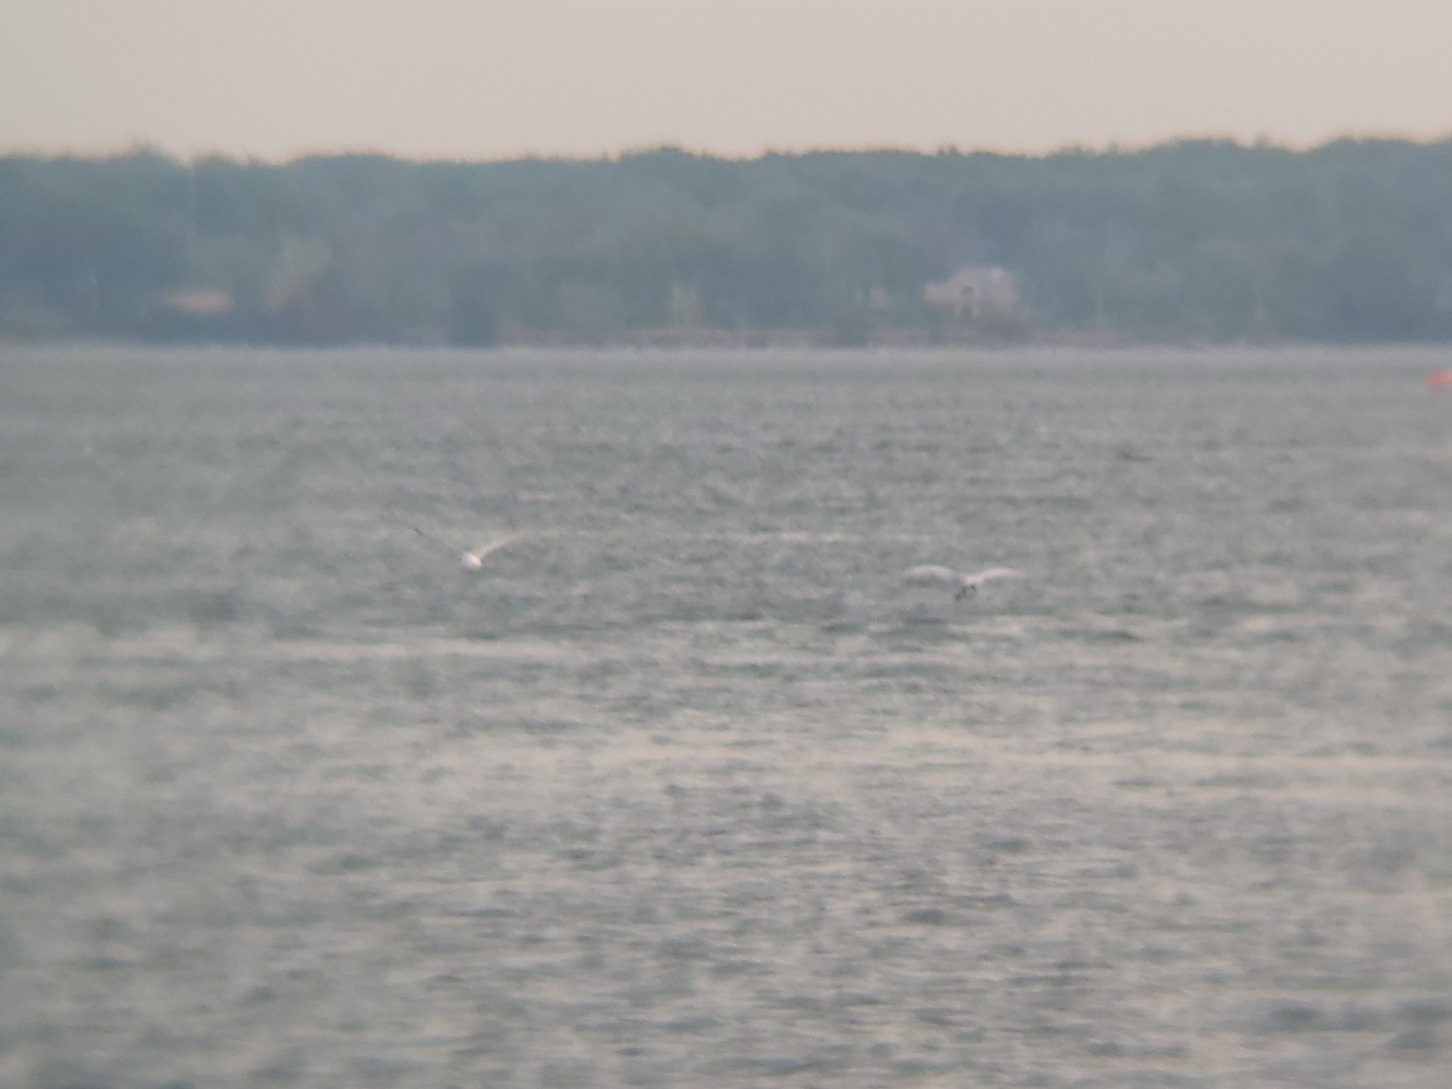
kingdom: Animalia
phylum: Chordata
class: Aves
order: Charadriiformes
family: Laridae
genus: Hydroprogne
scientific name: Hydroprogne caspia
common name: Caspian tern
